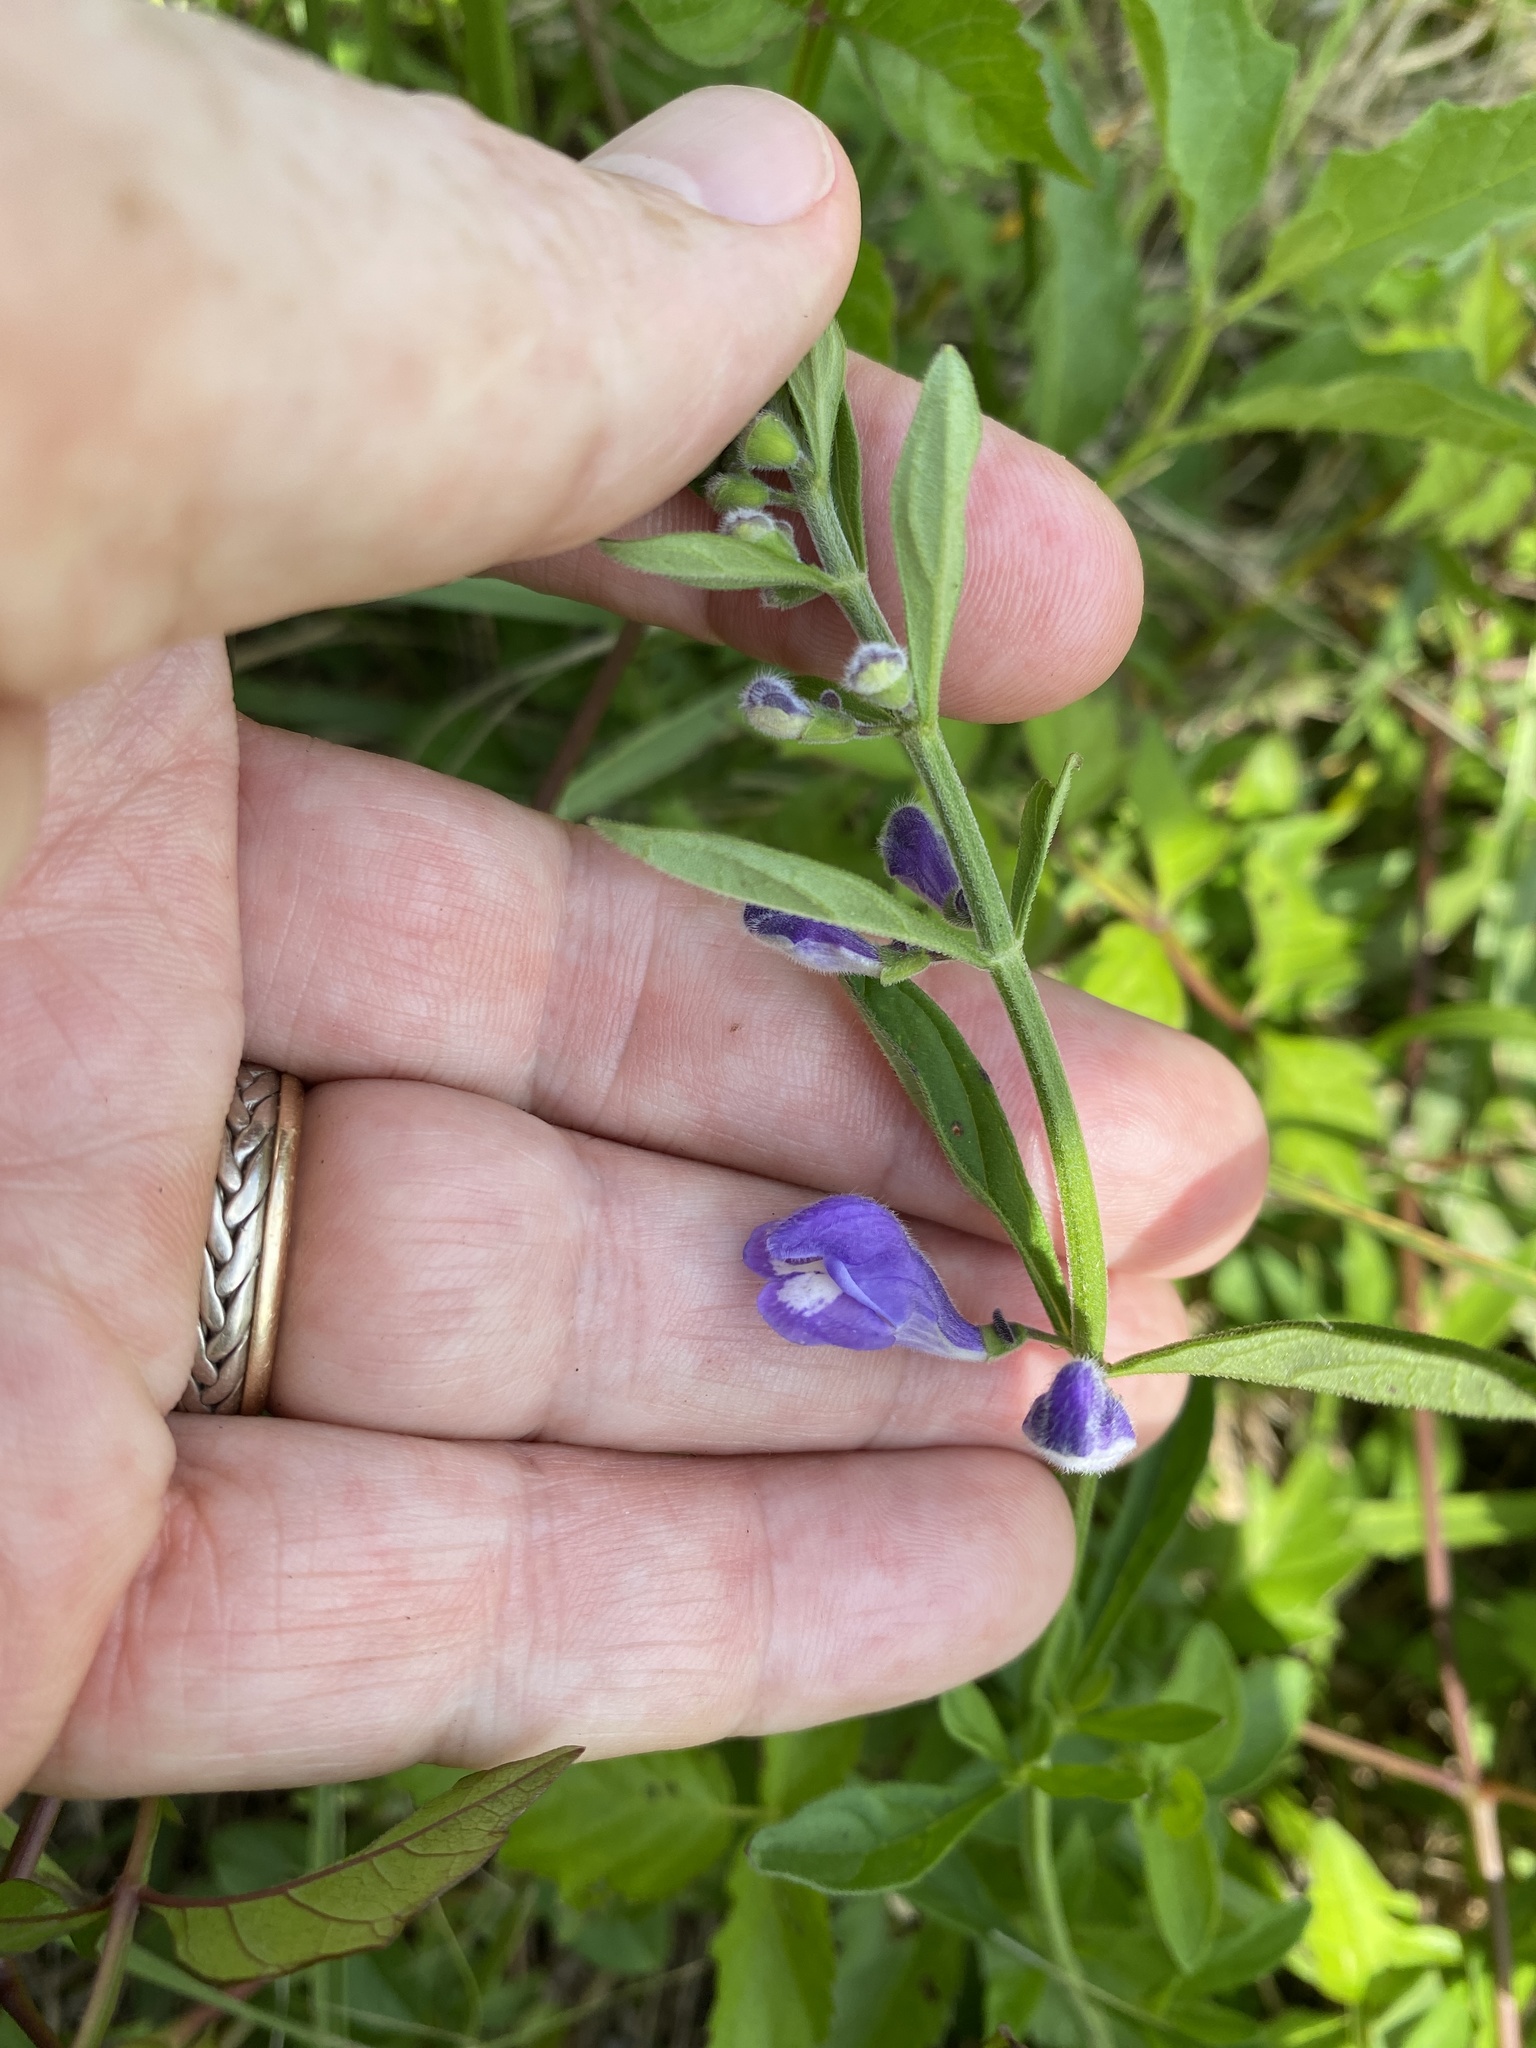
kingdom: Plantae
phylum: Tracheophyta
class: Magnoliopsida
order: Lamiales
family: Lamiaceae
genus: Scutellaria
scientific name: Scutellaria integrifolia
